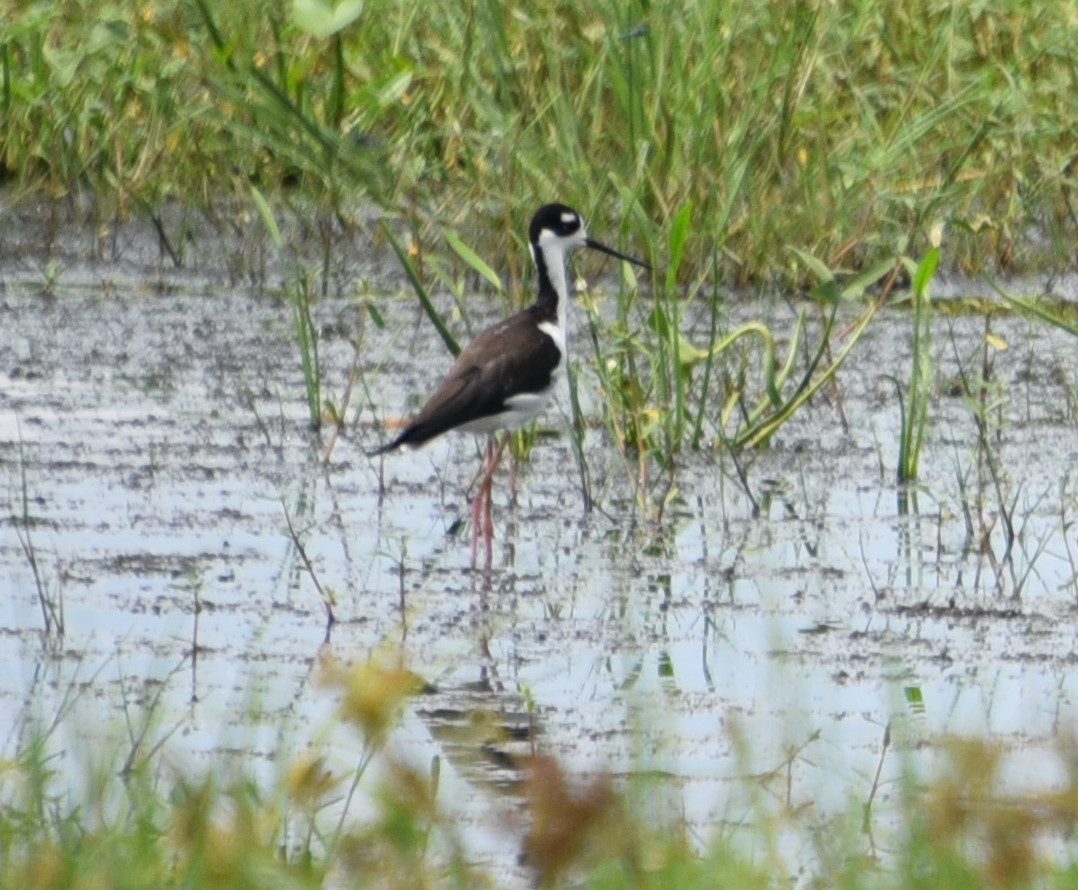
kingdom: Animalia
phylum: Chordata
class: Aves
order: Charadriiformes
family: Recurvirostridae
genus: Himantopus
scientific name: Himantopus mexicanus
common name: Black-necked stilt
